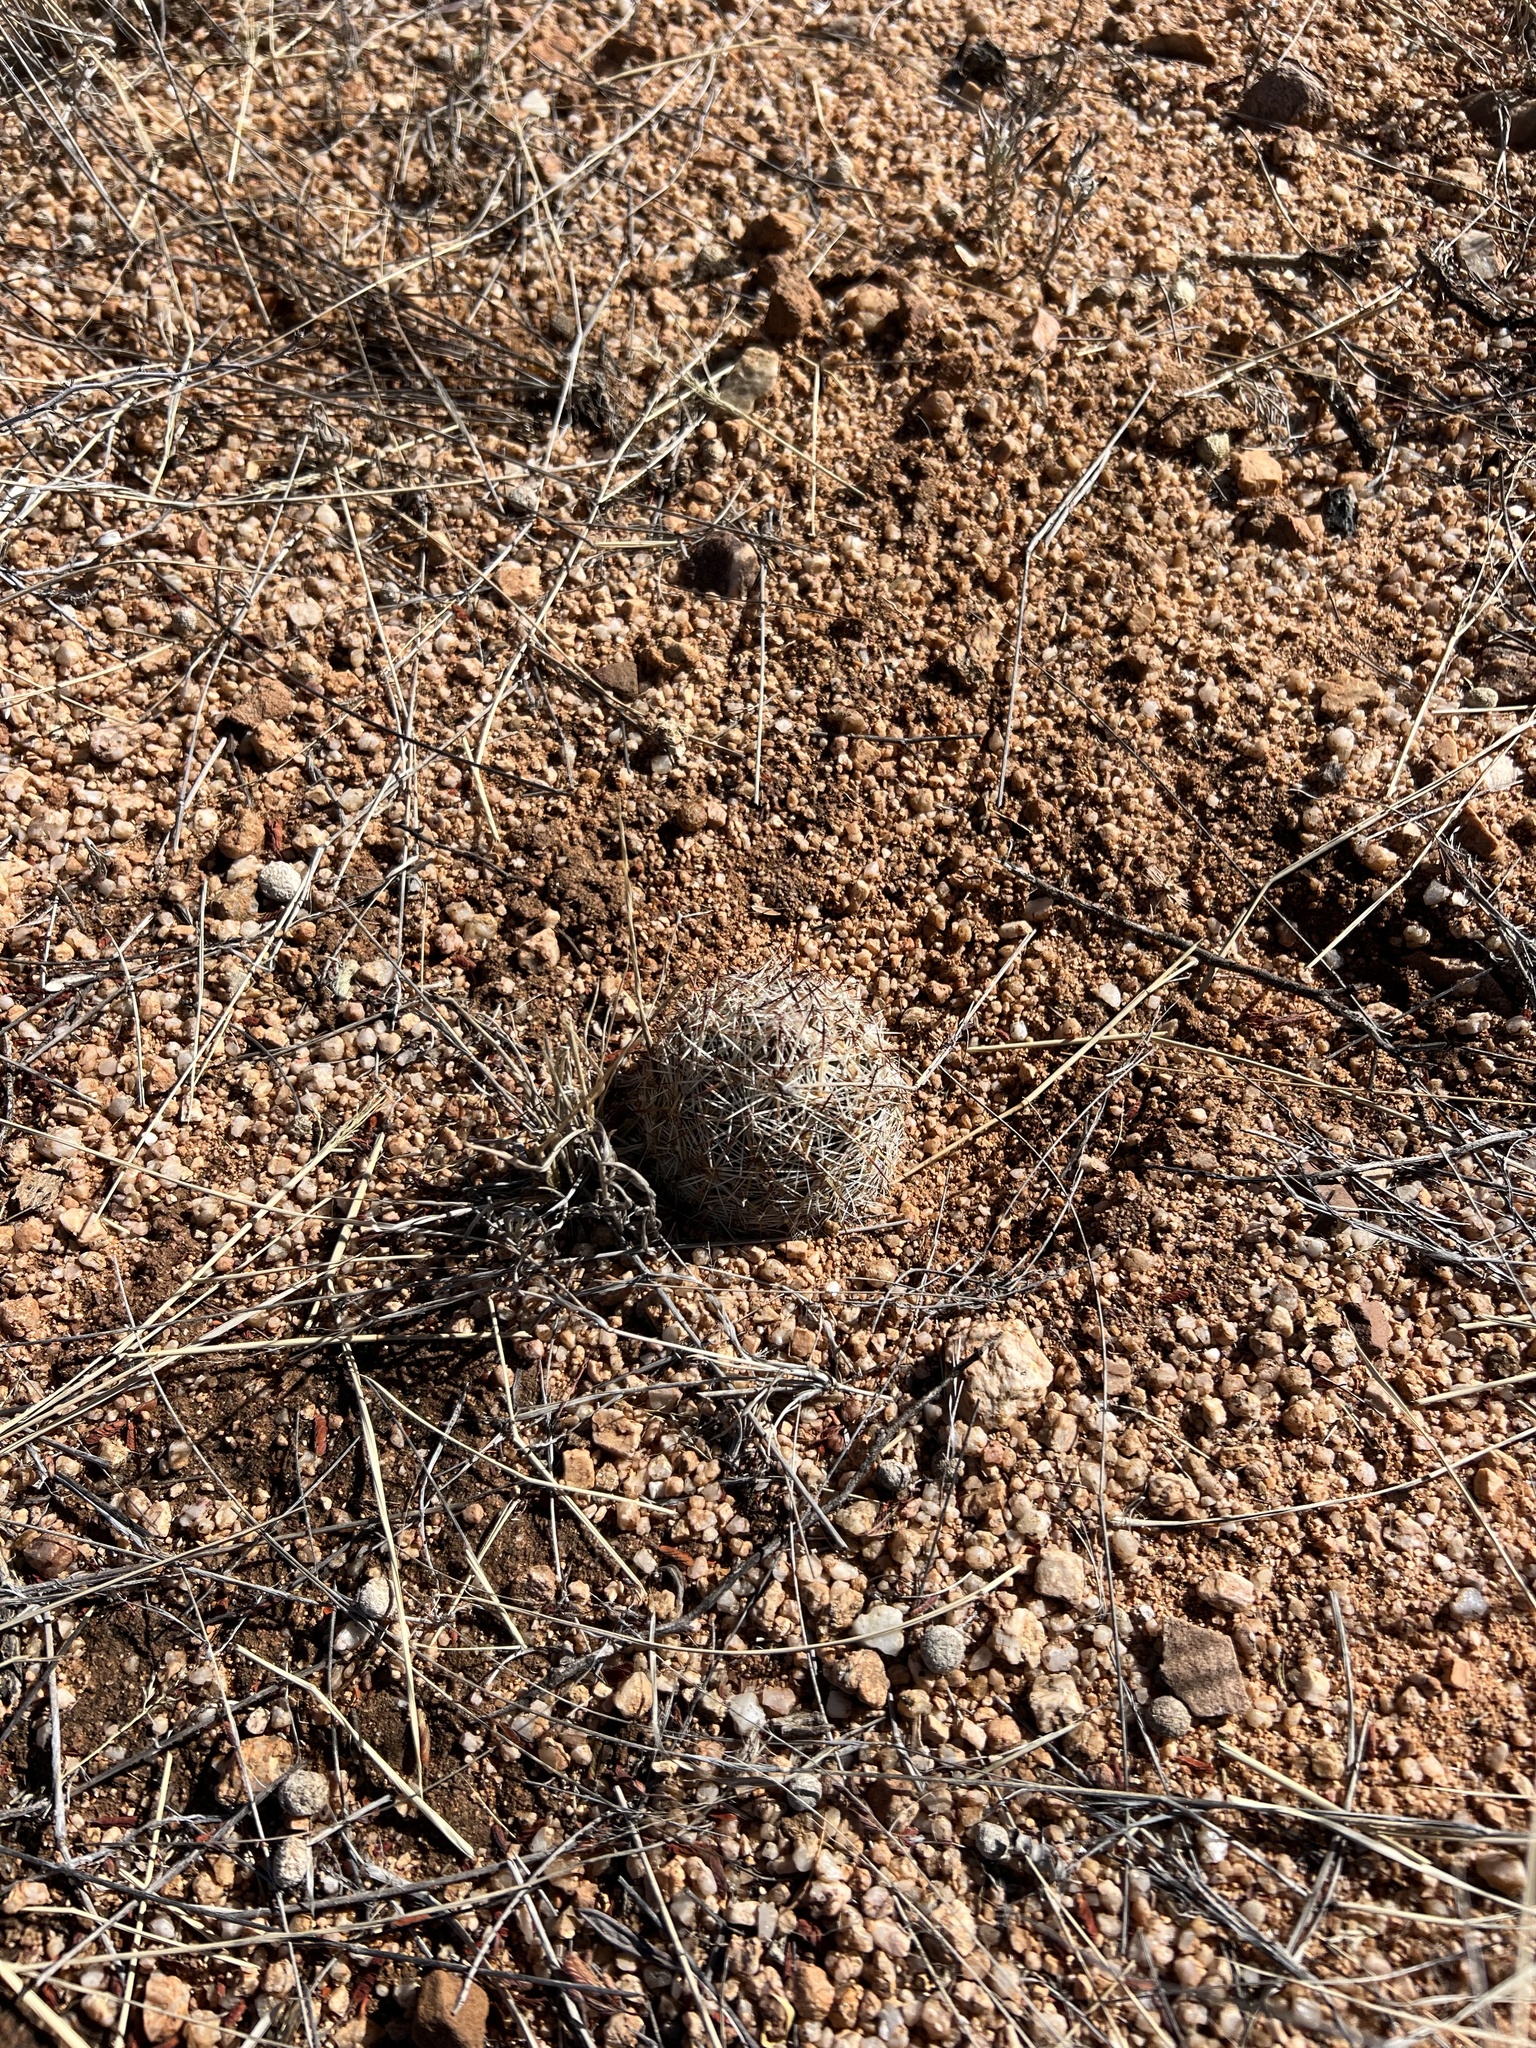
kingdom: Plantae
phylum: Tracheophyta
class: Magnoliopsida
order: Caryophyllales
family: Cactaceae
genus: Pelecyphora
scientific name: Pelecyphora vivipara
